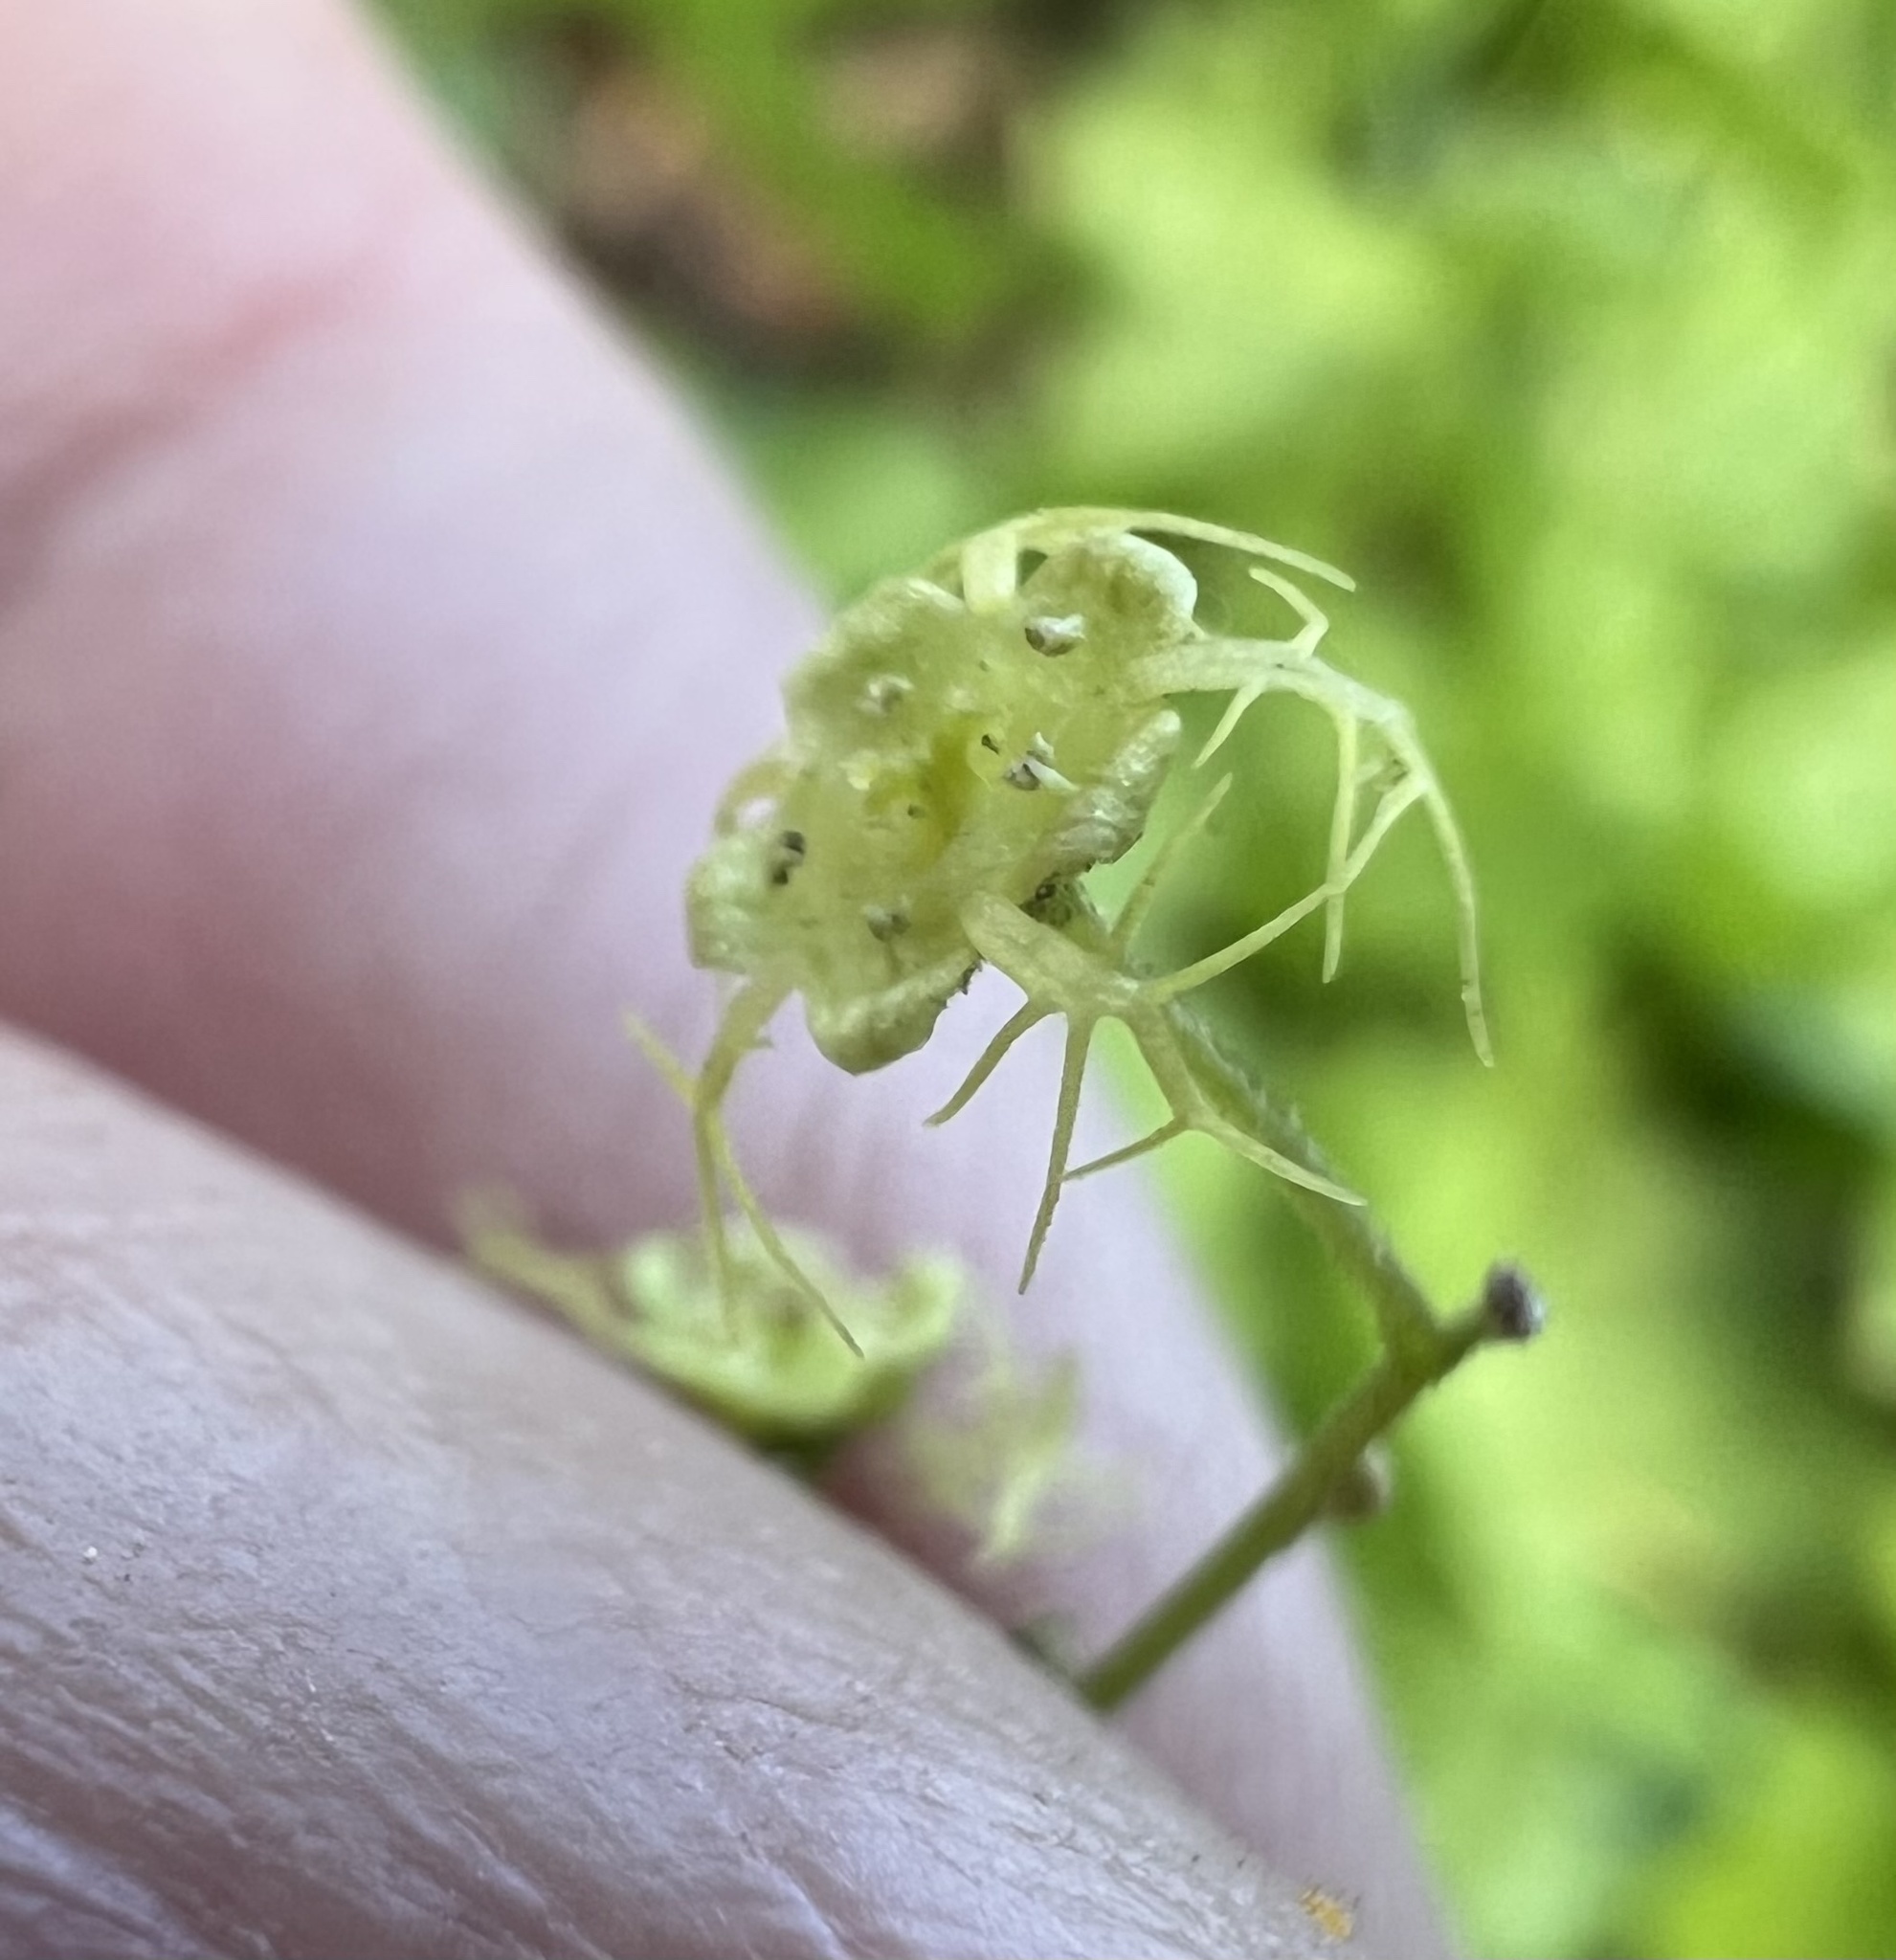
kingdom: Plantae
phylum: Tracheophyta
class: Magnoliopsida
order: Saxifragales
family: Saxifragaceae
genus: Brewerimitella
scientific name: Brewerimitella breweri
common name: Brewer's bishop's-cap
